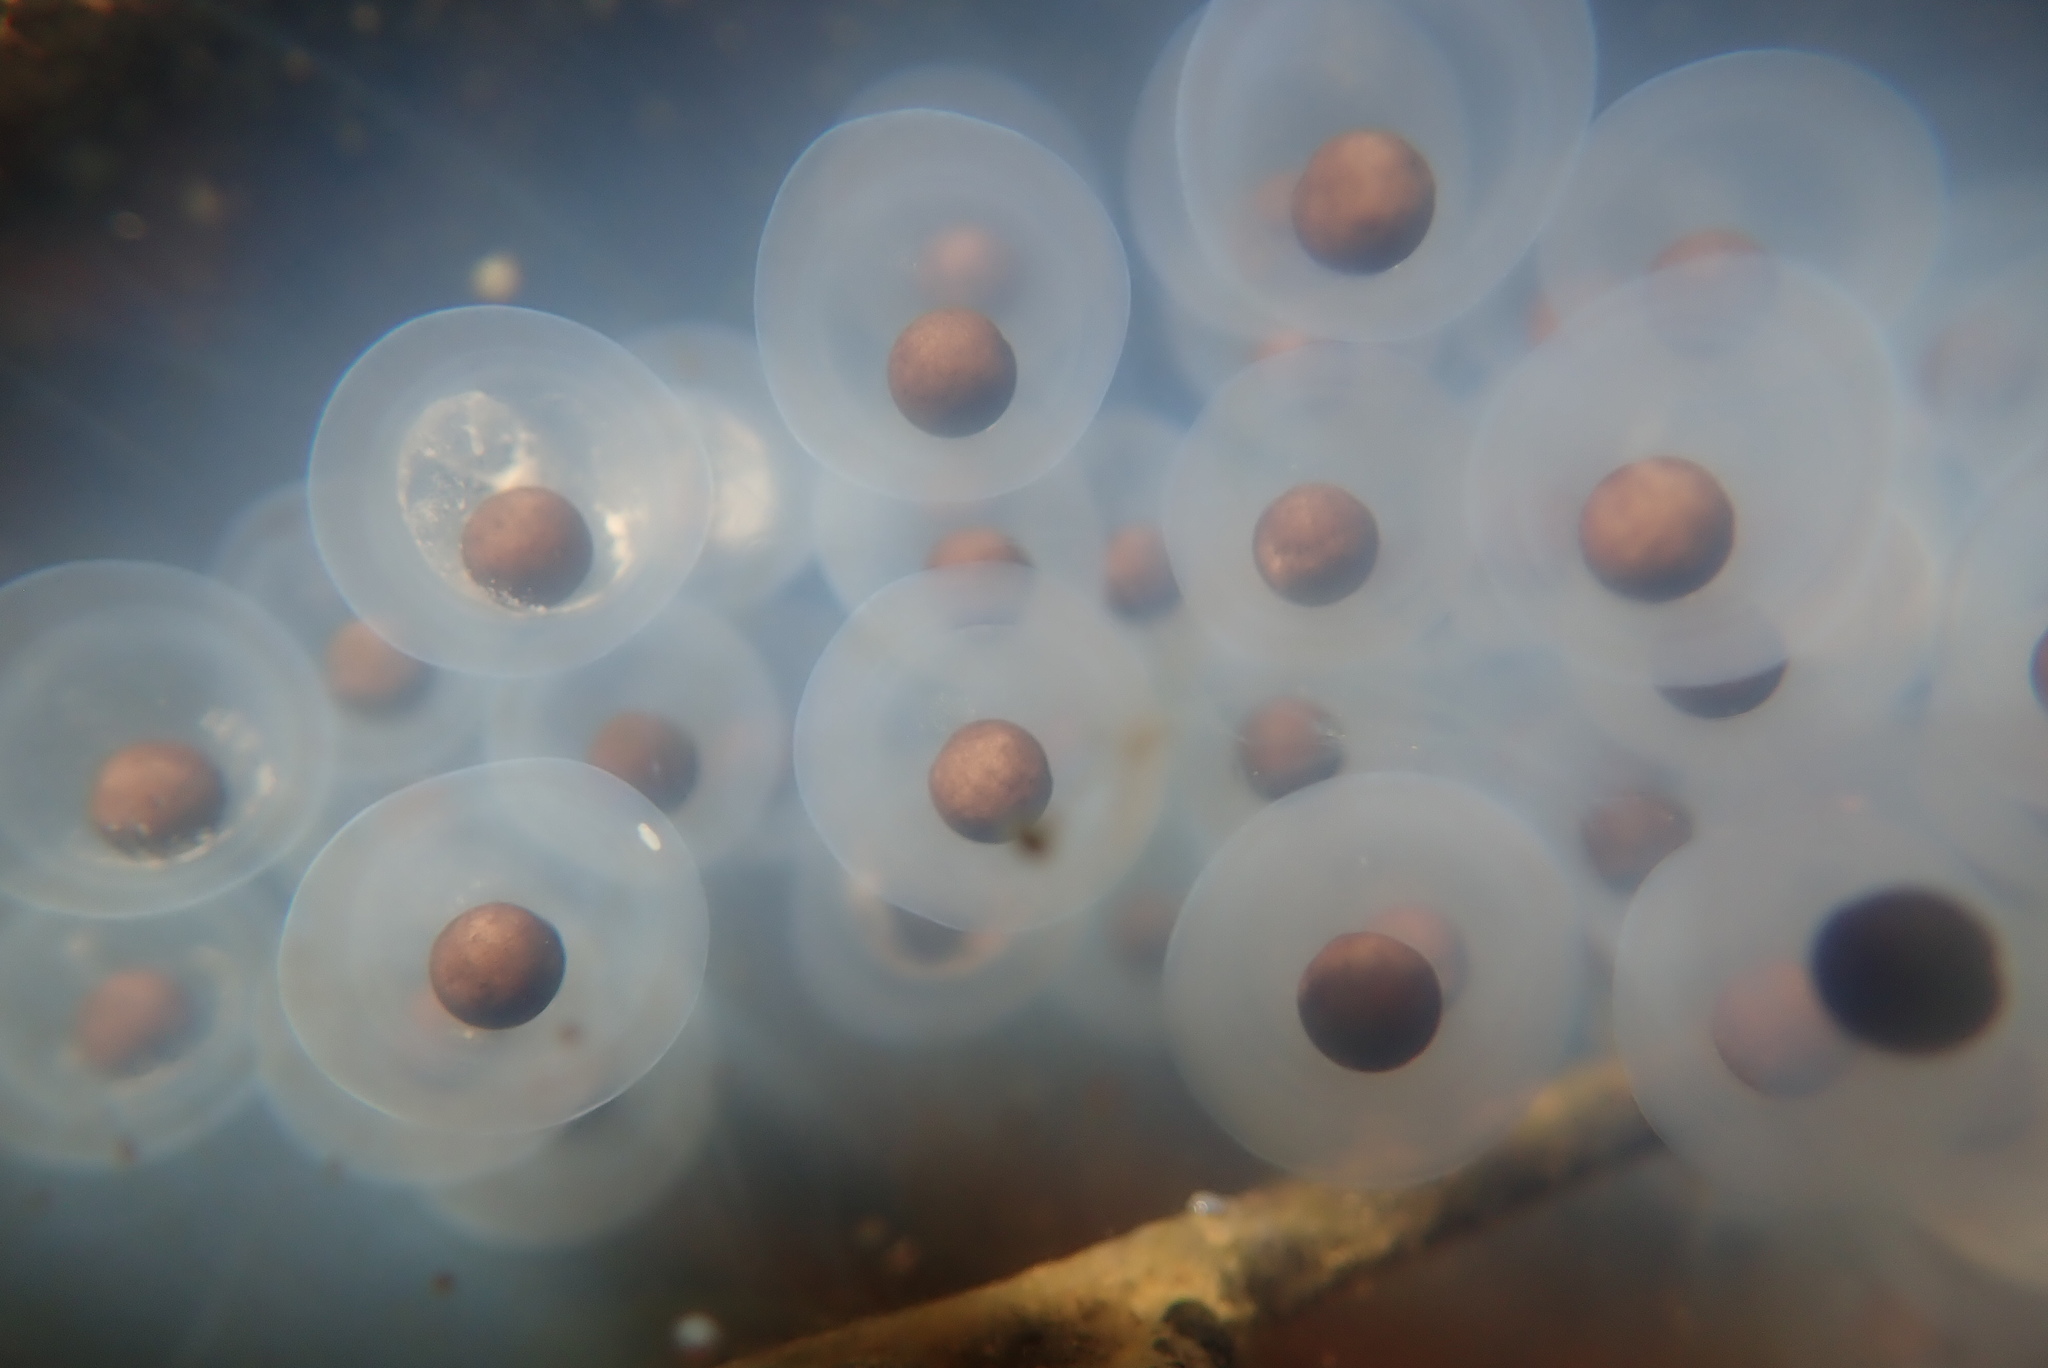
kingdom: Animalia
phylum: Chordata
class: Amphibia
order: Caudata
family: Ambystomatidae
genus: Ambystoma
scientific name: Ambystoma maculatum
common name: Spotted salamander
